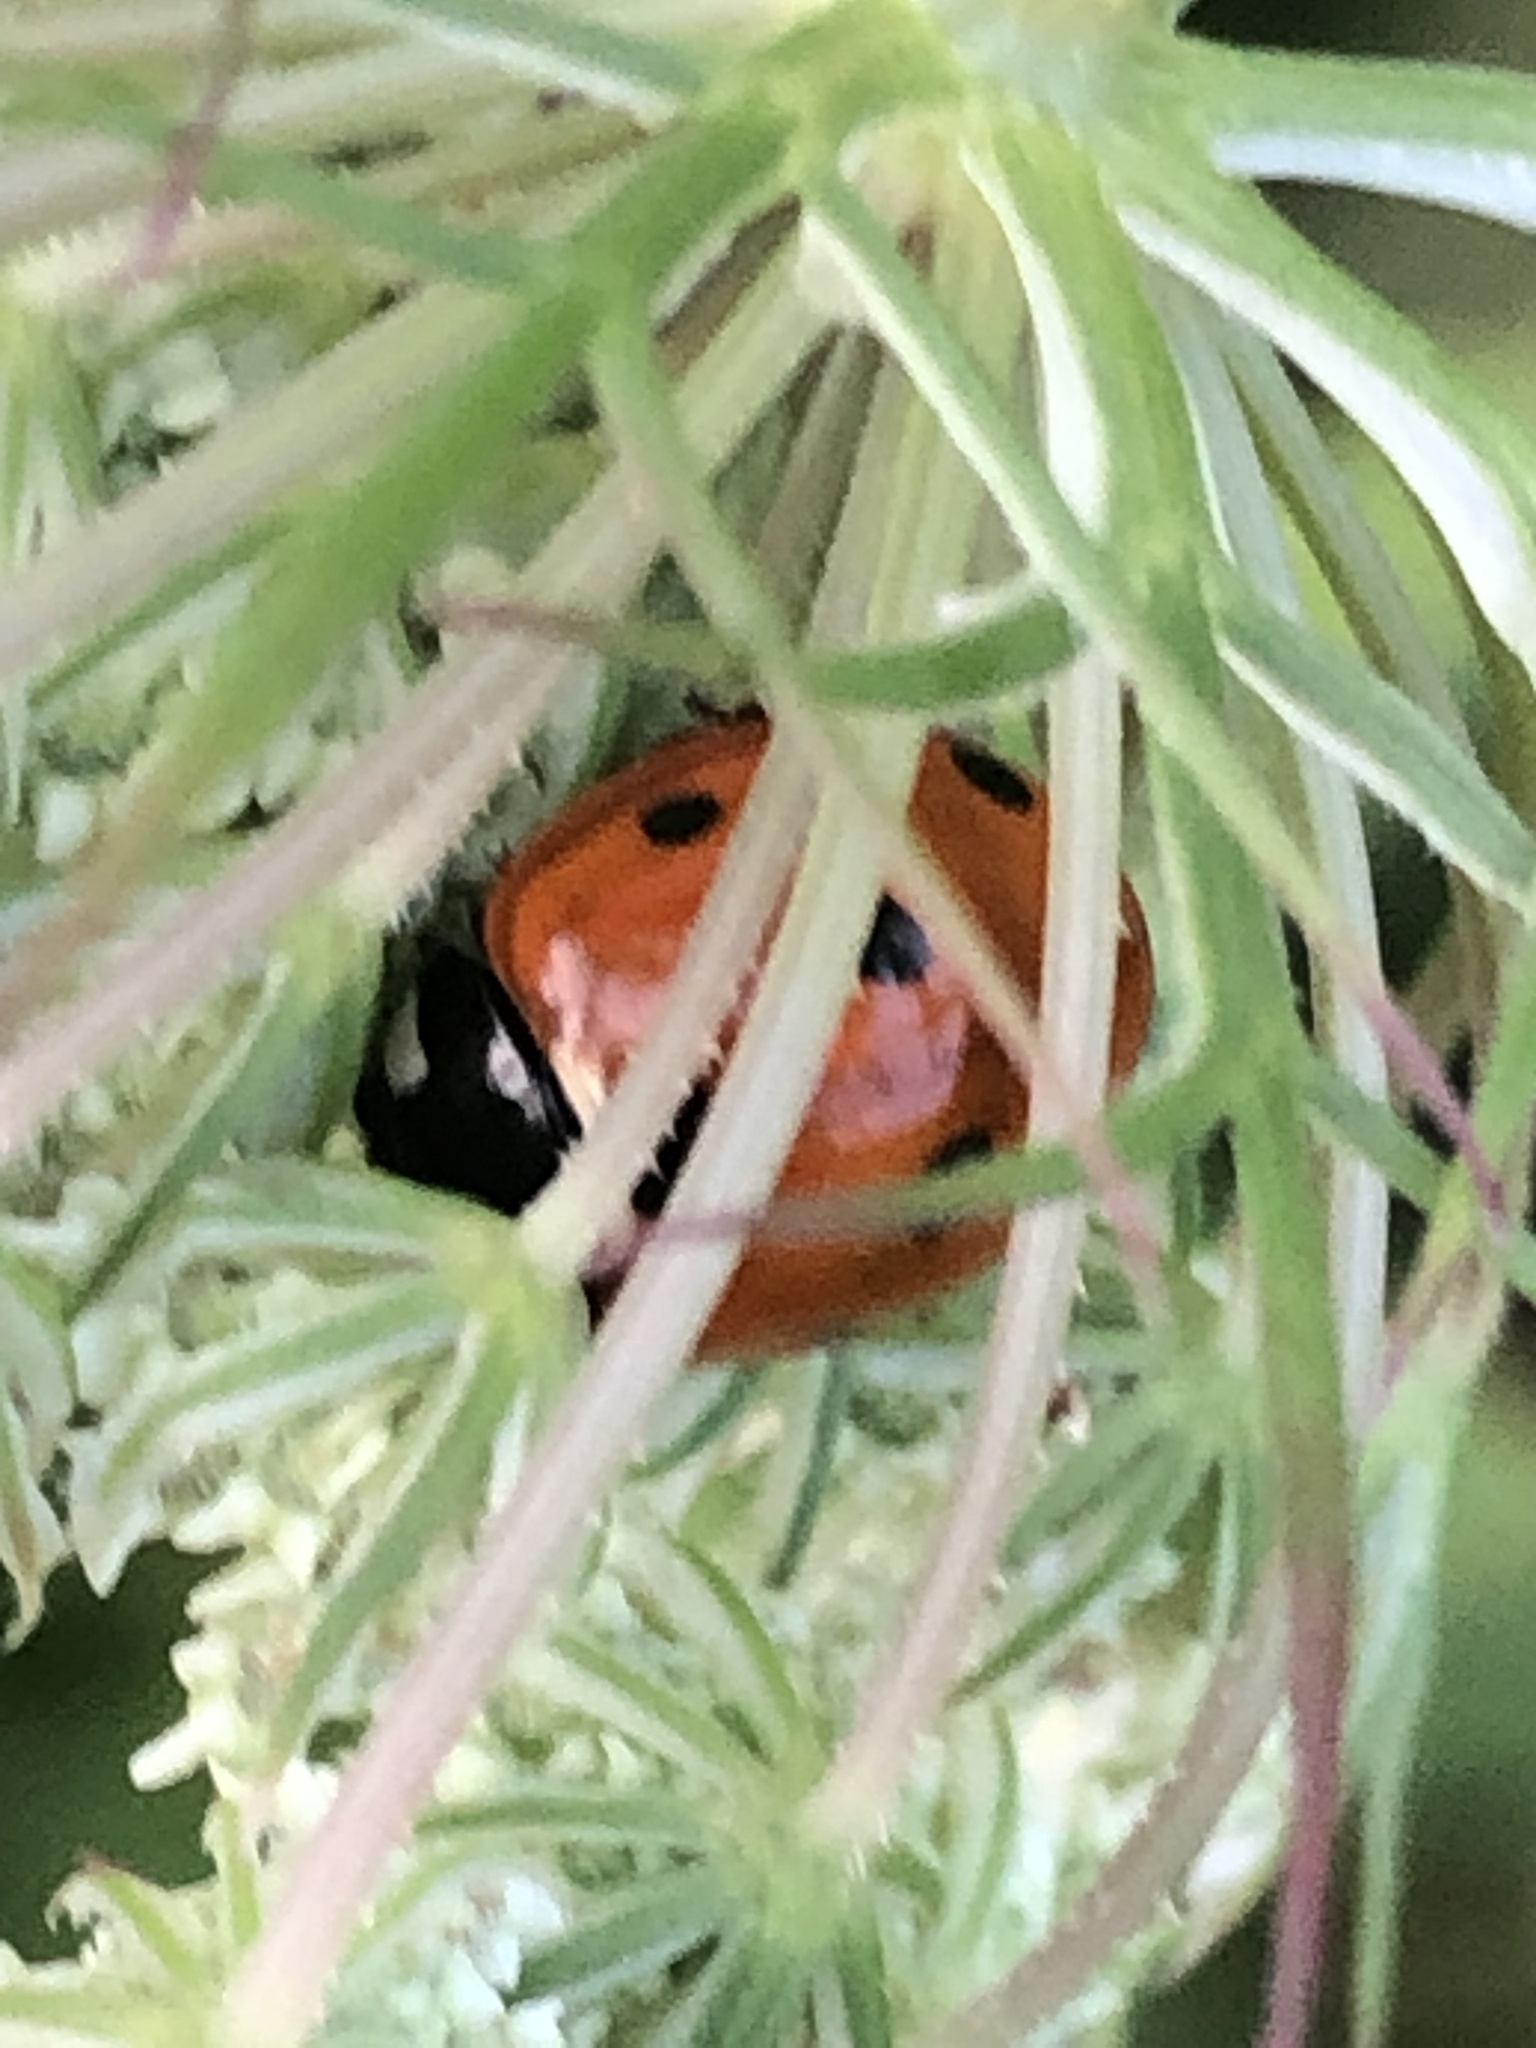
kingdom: Animalia
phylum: Arthropoda
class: Insecta
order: Coleoptera
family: Coccinellidae
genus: Coccinella
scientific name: Coccinella septempunctata
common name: Sevenspotted lady beetle
